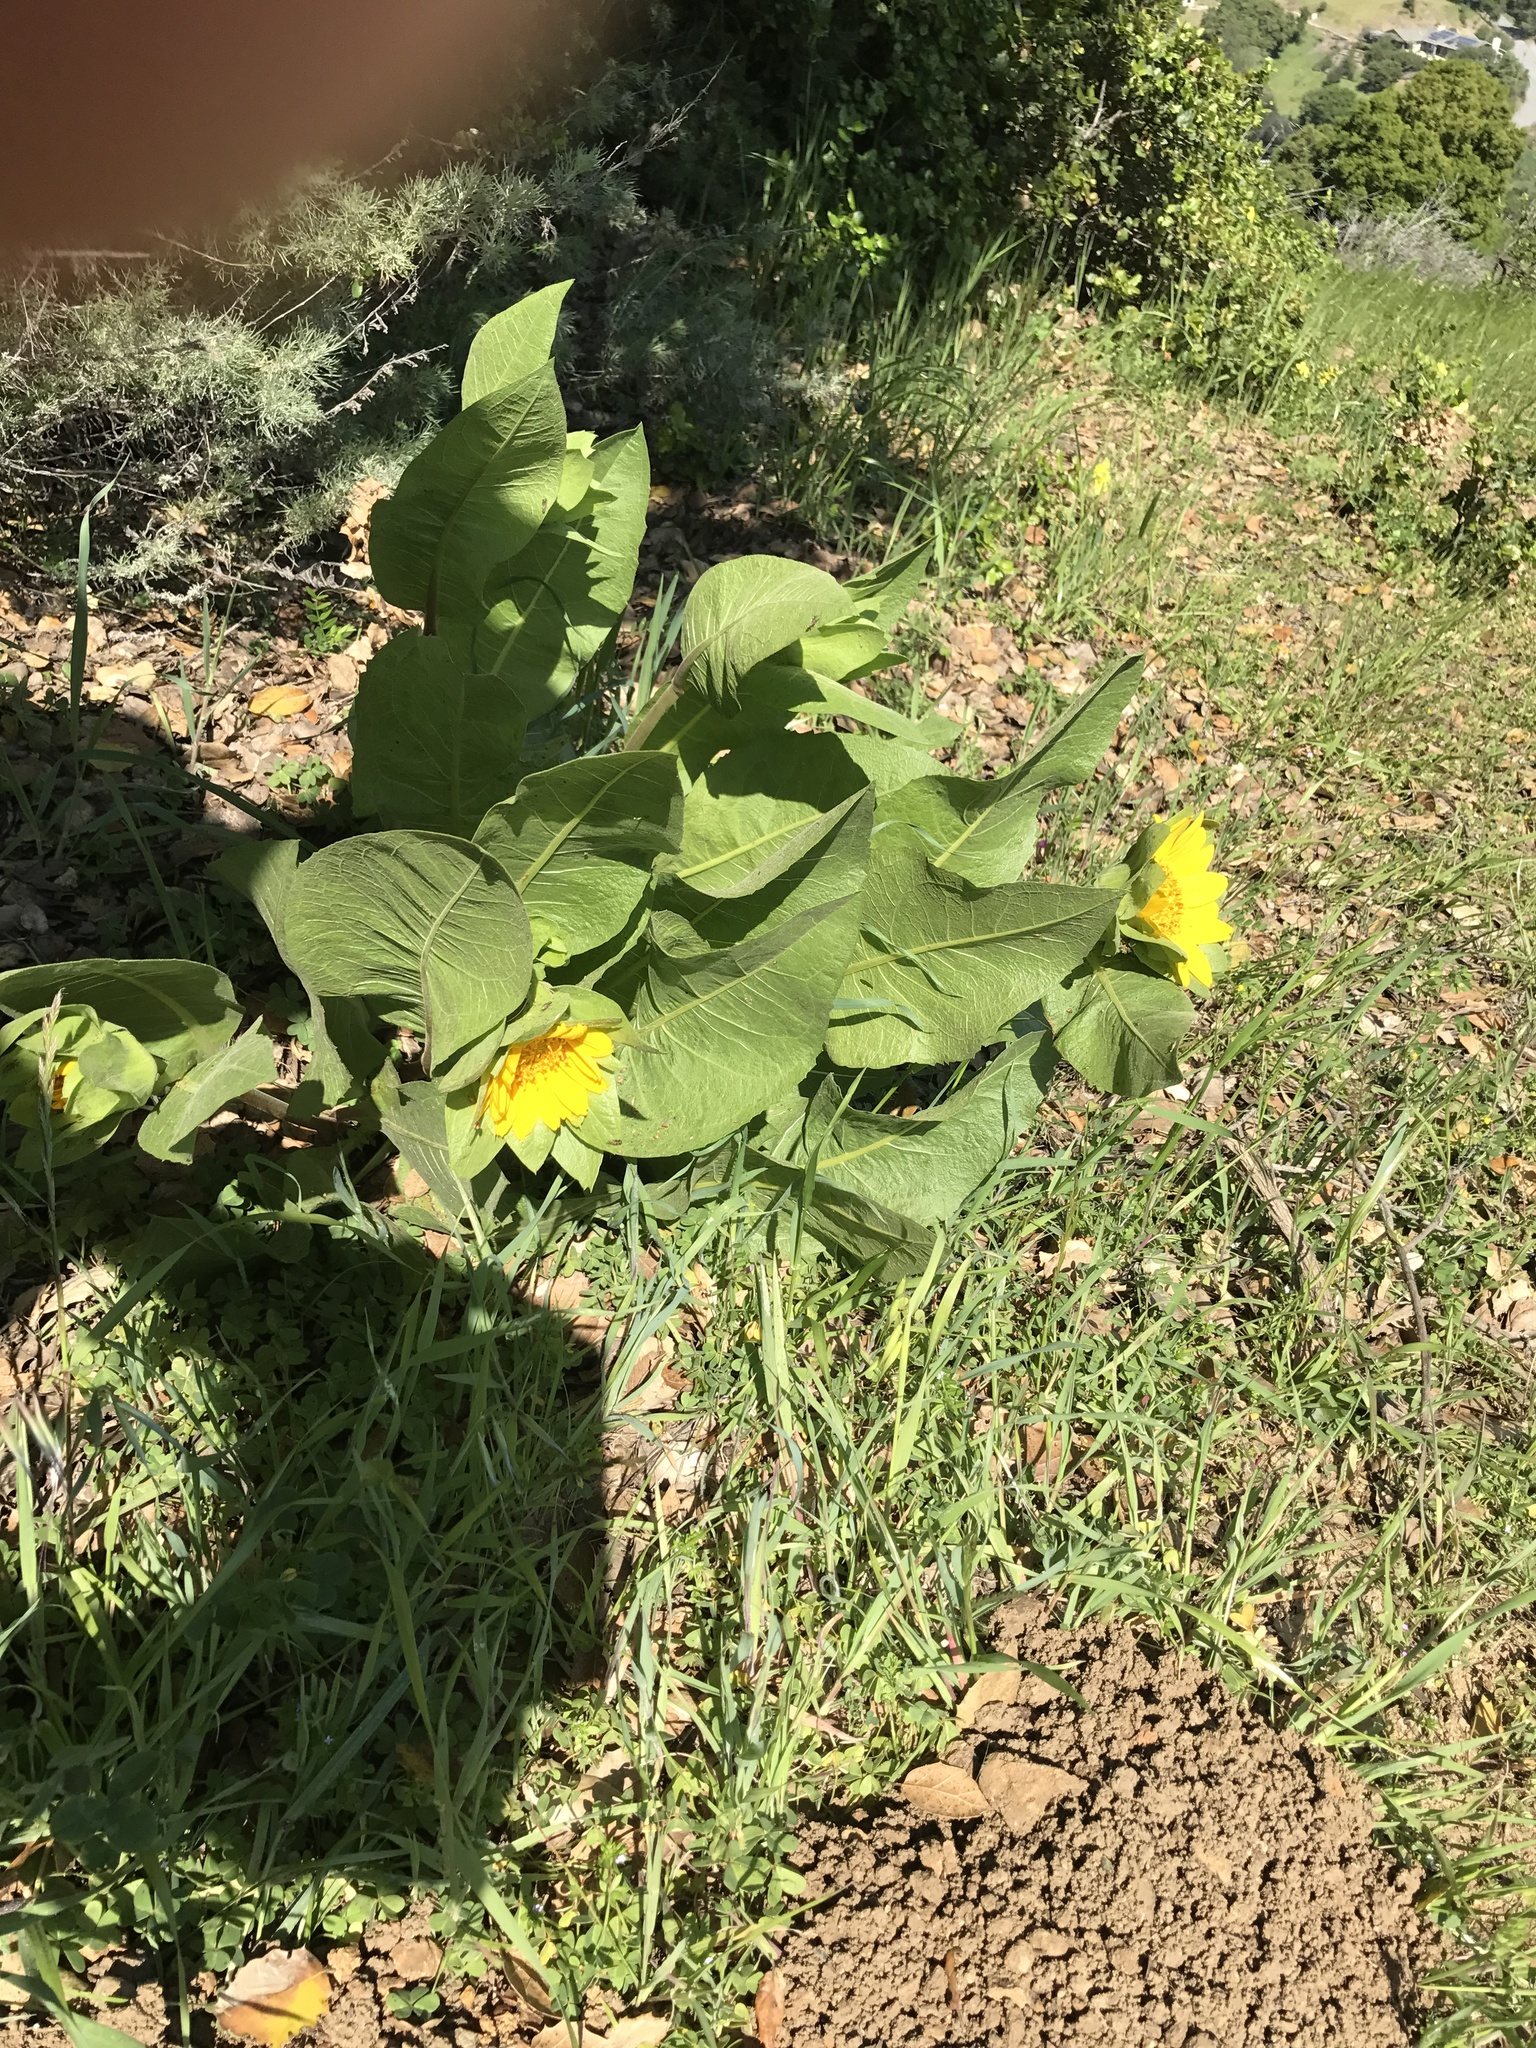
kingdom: Plantae
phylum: Tracheophyta
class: Magnoliopsida
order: Asterales
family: Asteraceae
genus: Wyethia
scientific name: Wyethia glabra
